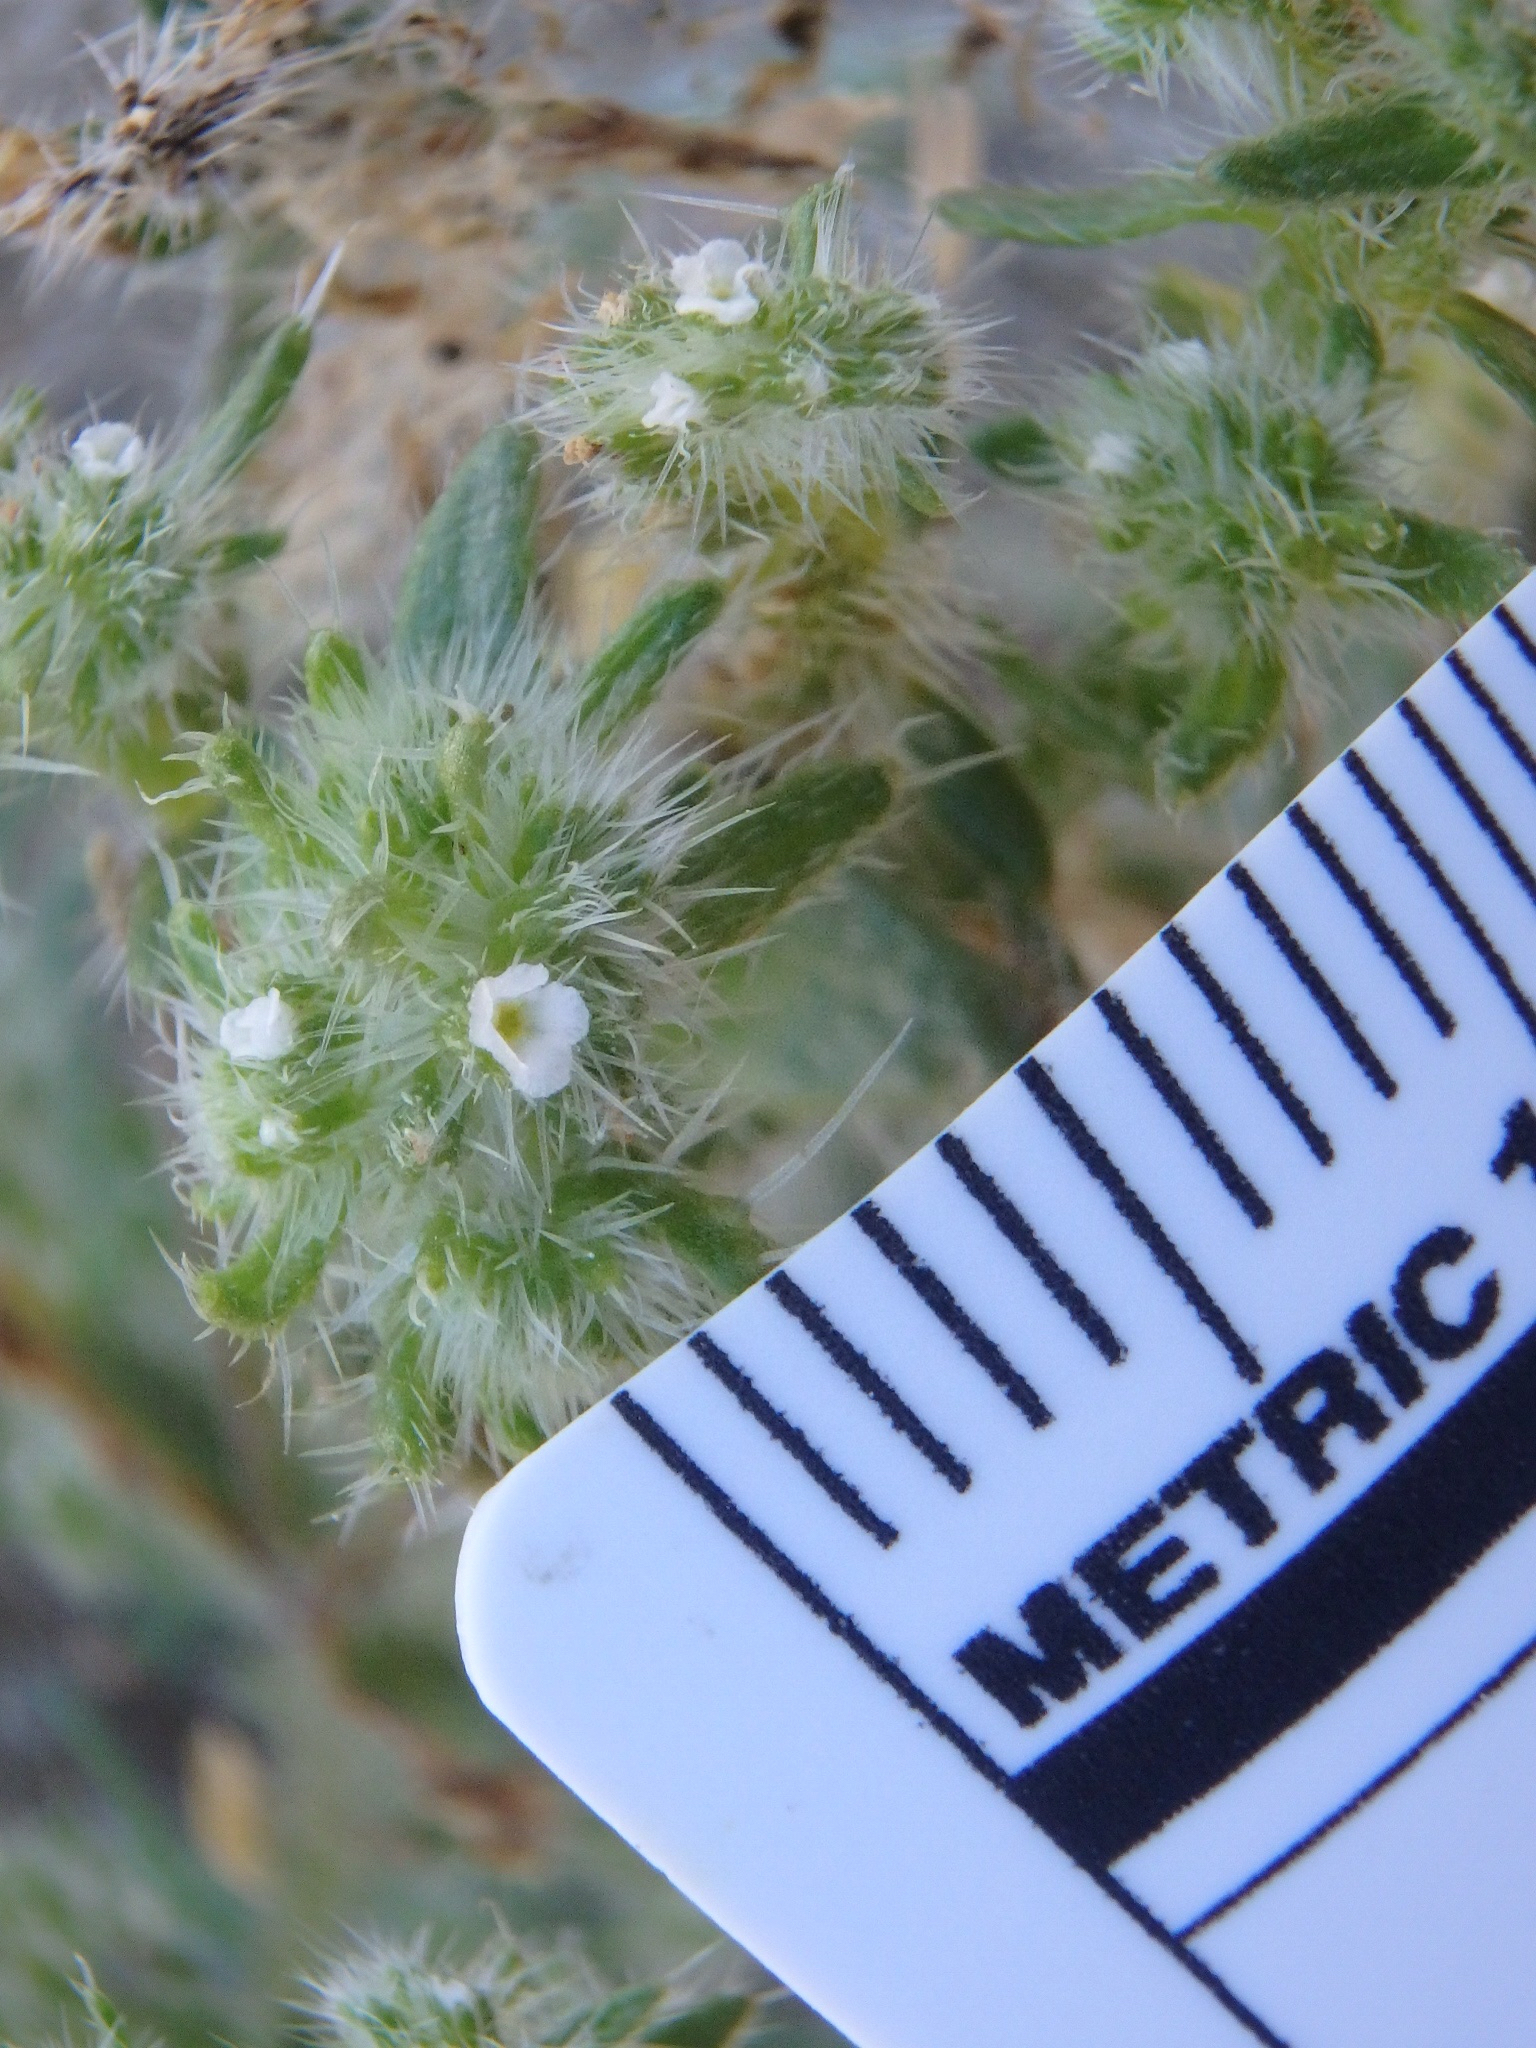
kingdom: Plantae
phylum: Tracheophyta
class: Magnoliopsida
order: Boraginales
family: Boraginaceae
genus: Cryptantha
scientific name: Cryptantha maritima
